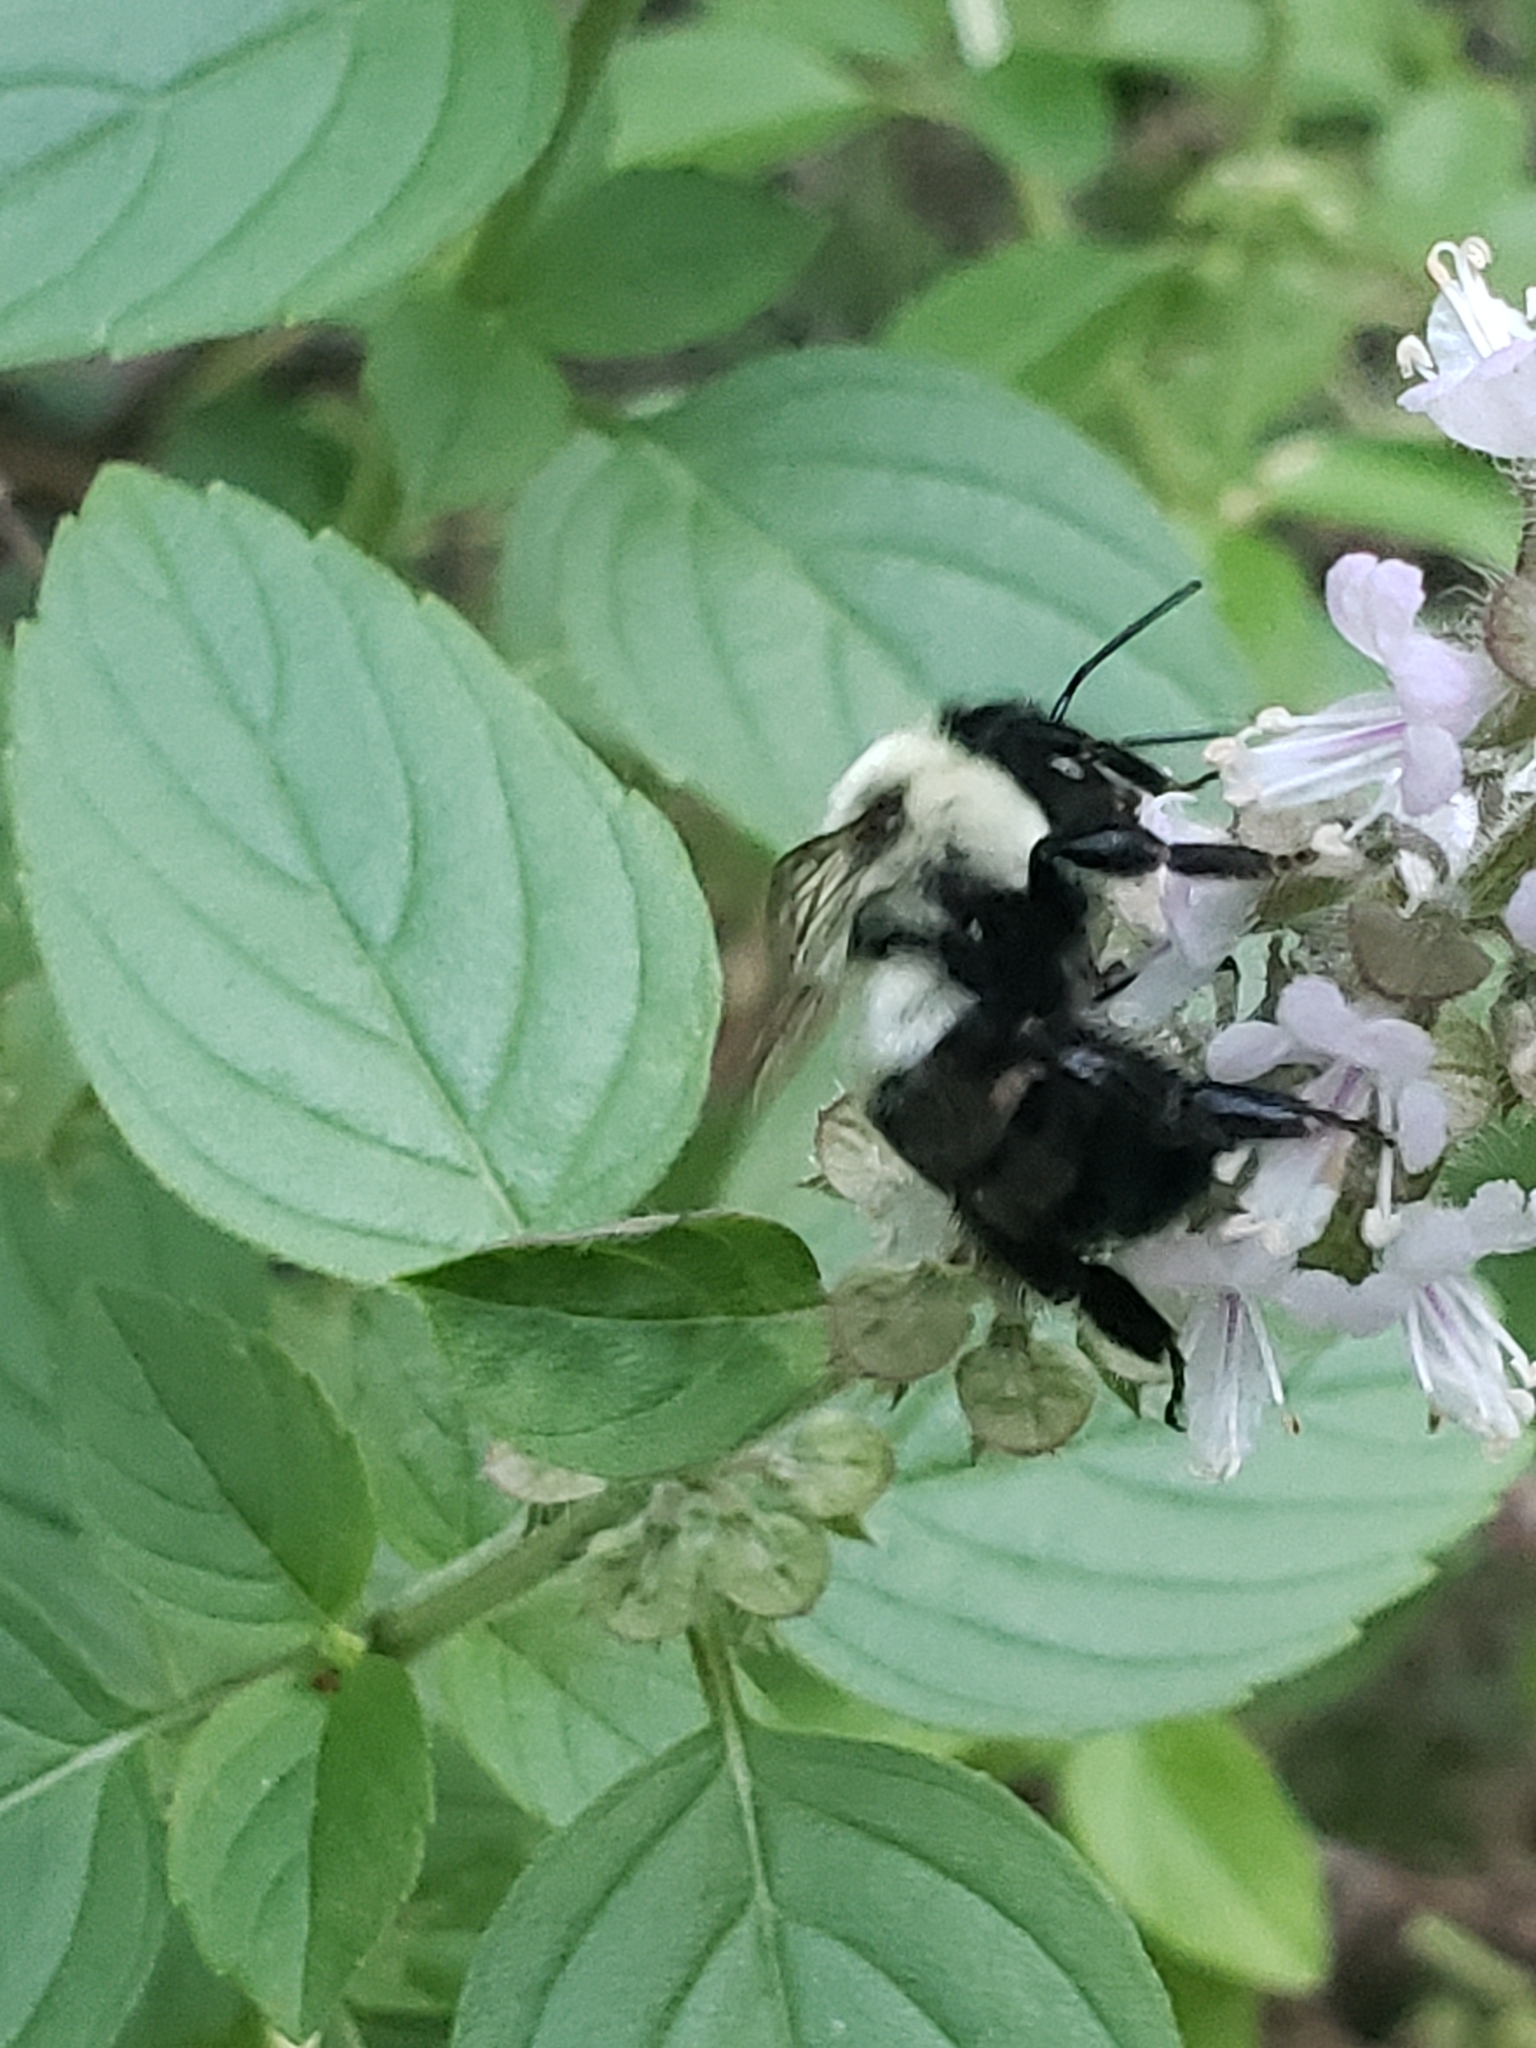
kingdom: Animalia
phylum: Arthropoda
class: Insecta
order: Hymenoptera
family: Apidae
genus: Bombus
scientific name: Bombus impatiens
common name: Common eastern bumble bee
